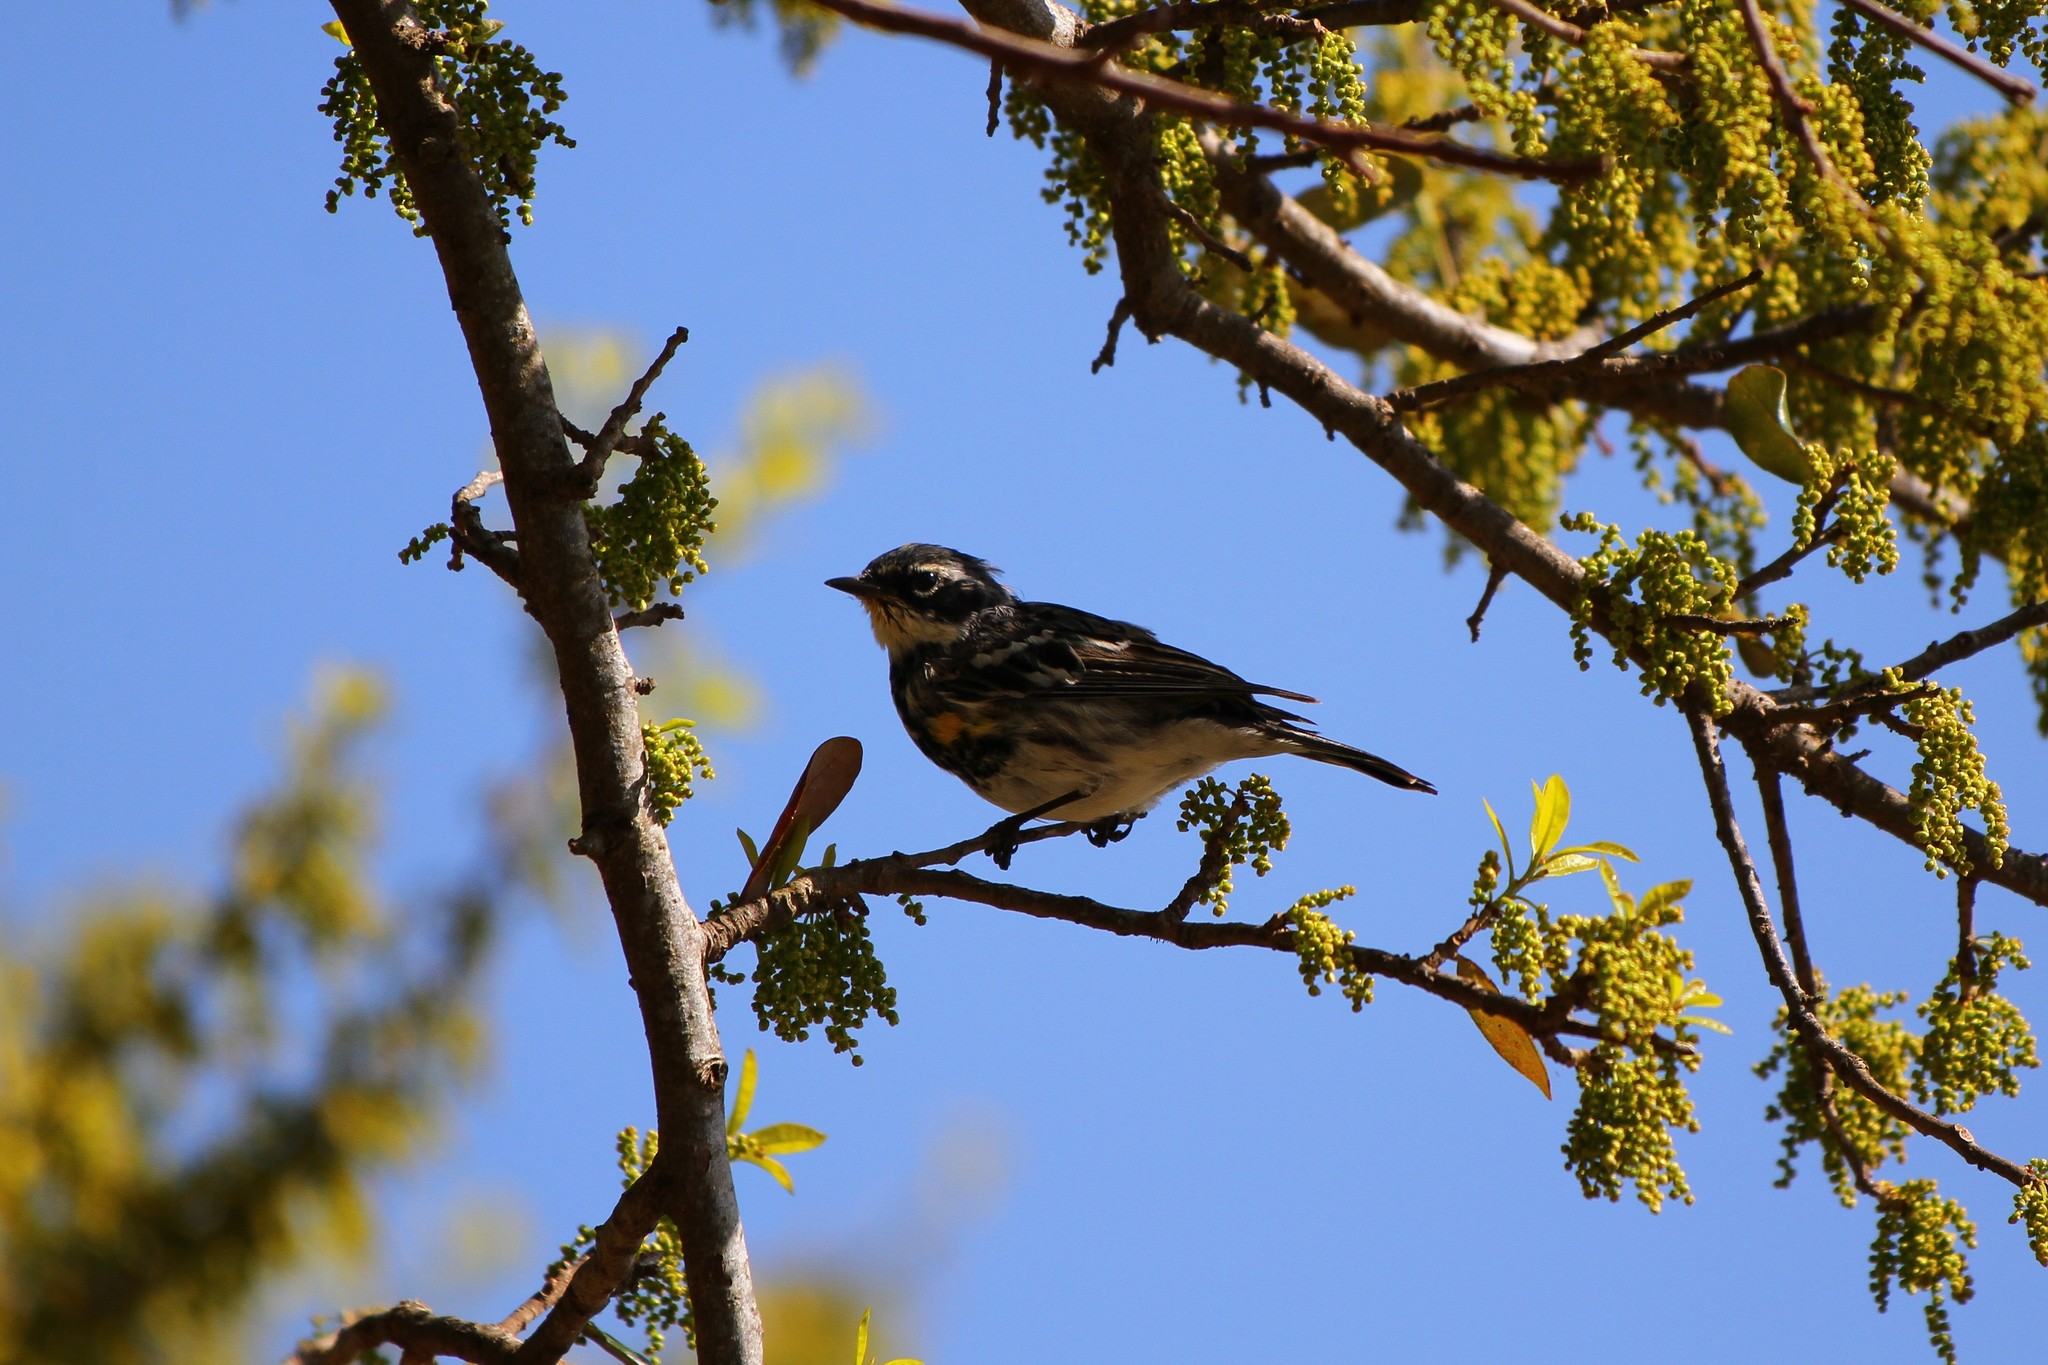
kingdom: Animalia
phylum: Chordata
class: Aves
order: Passeriformes
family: Parulidae
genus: Setophaga
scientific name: Setophaga coronata
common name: Myrtle warbler
